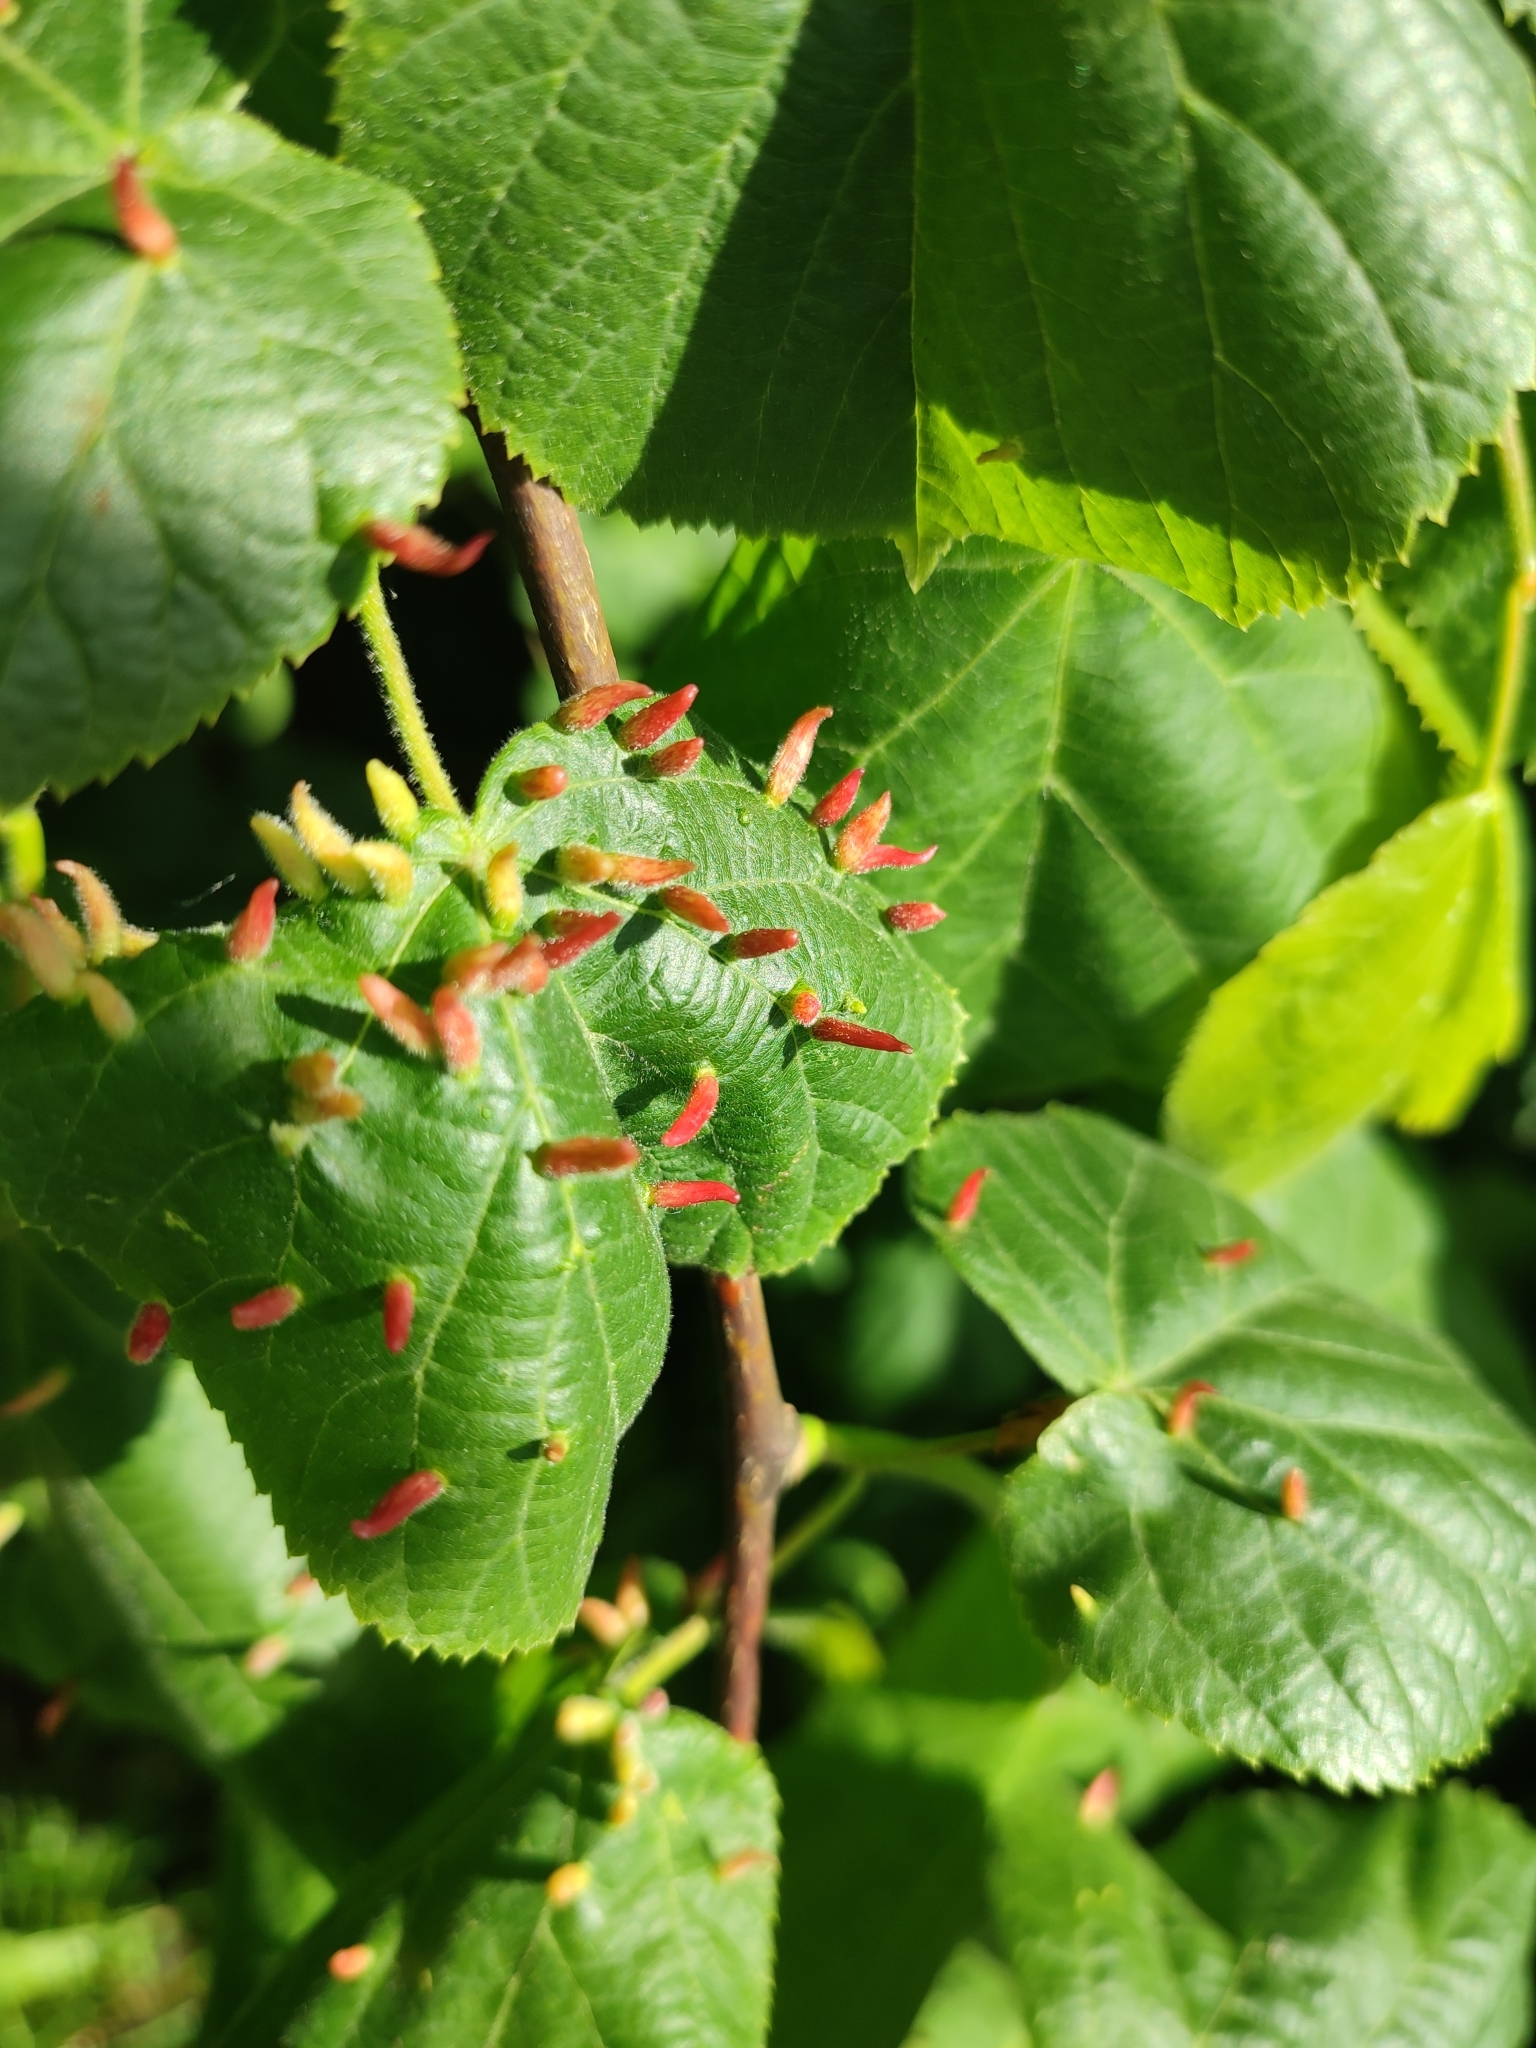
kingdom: Animalia
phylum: Arthropoda
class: Arachnida
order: Trombidiformes
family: Eriophyidae
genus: Eriophyes
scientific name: Eriophyes tiliae
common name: Red nail gall mite
